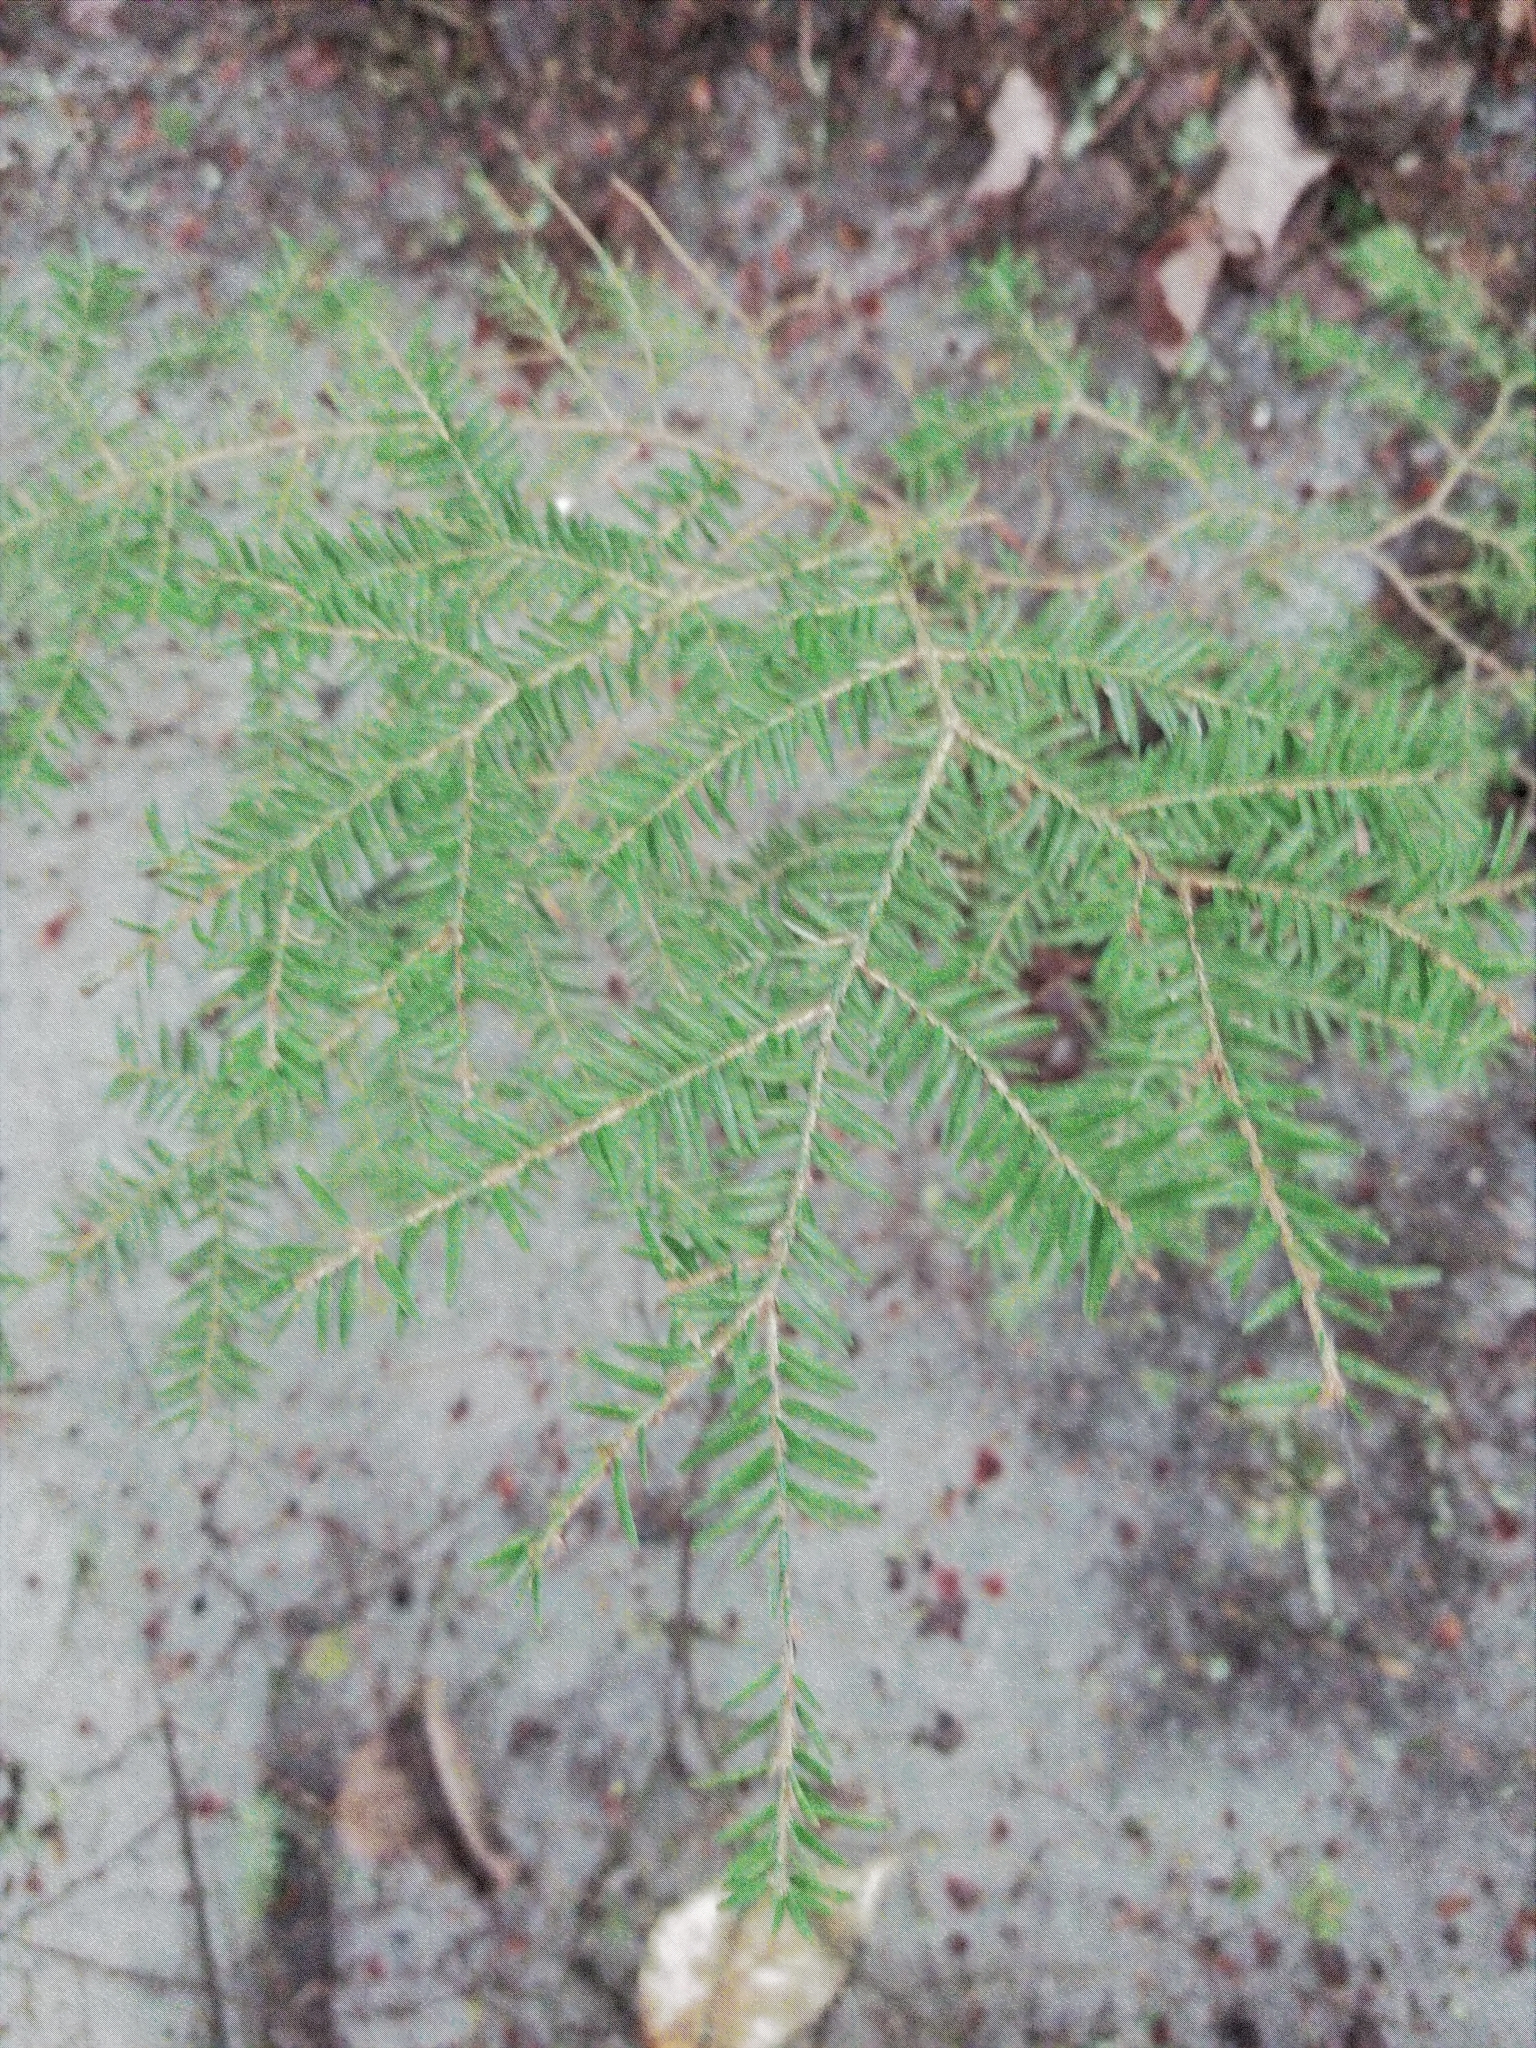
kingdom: Plantae
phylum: Tracheophyta
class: Pinopsida
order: Pinales
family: Pinaceae
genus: Tsuga
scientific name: Tsuga canadensis
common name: Eastern hemlock
